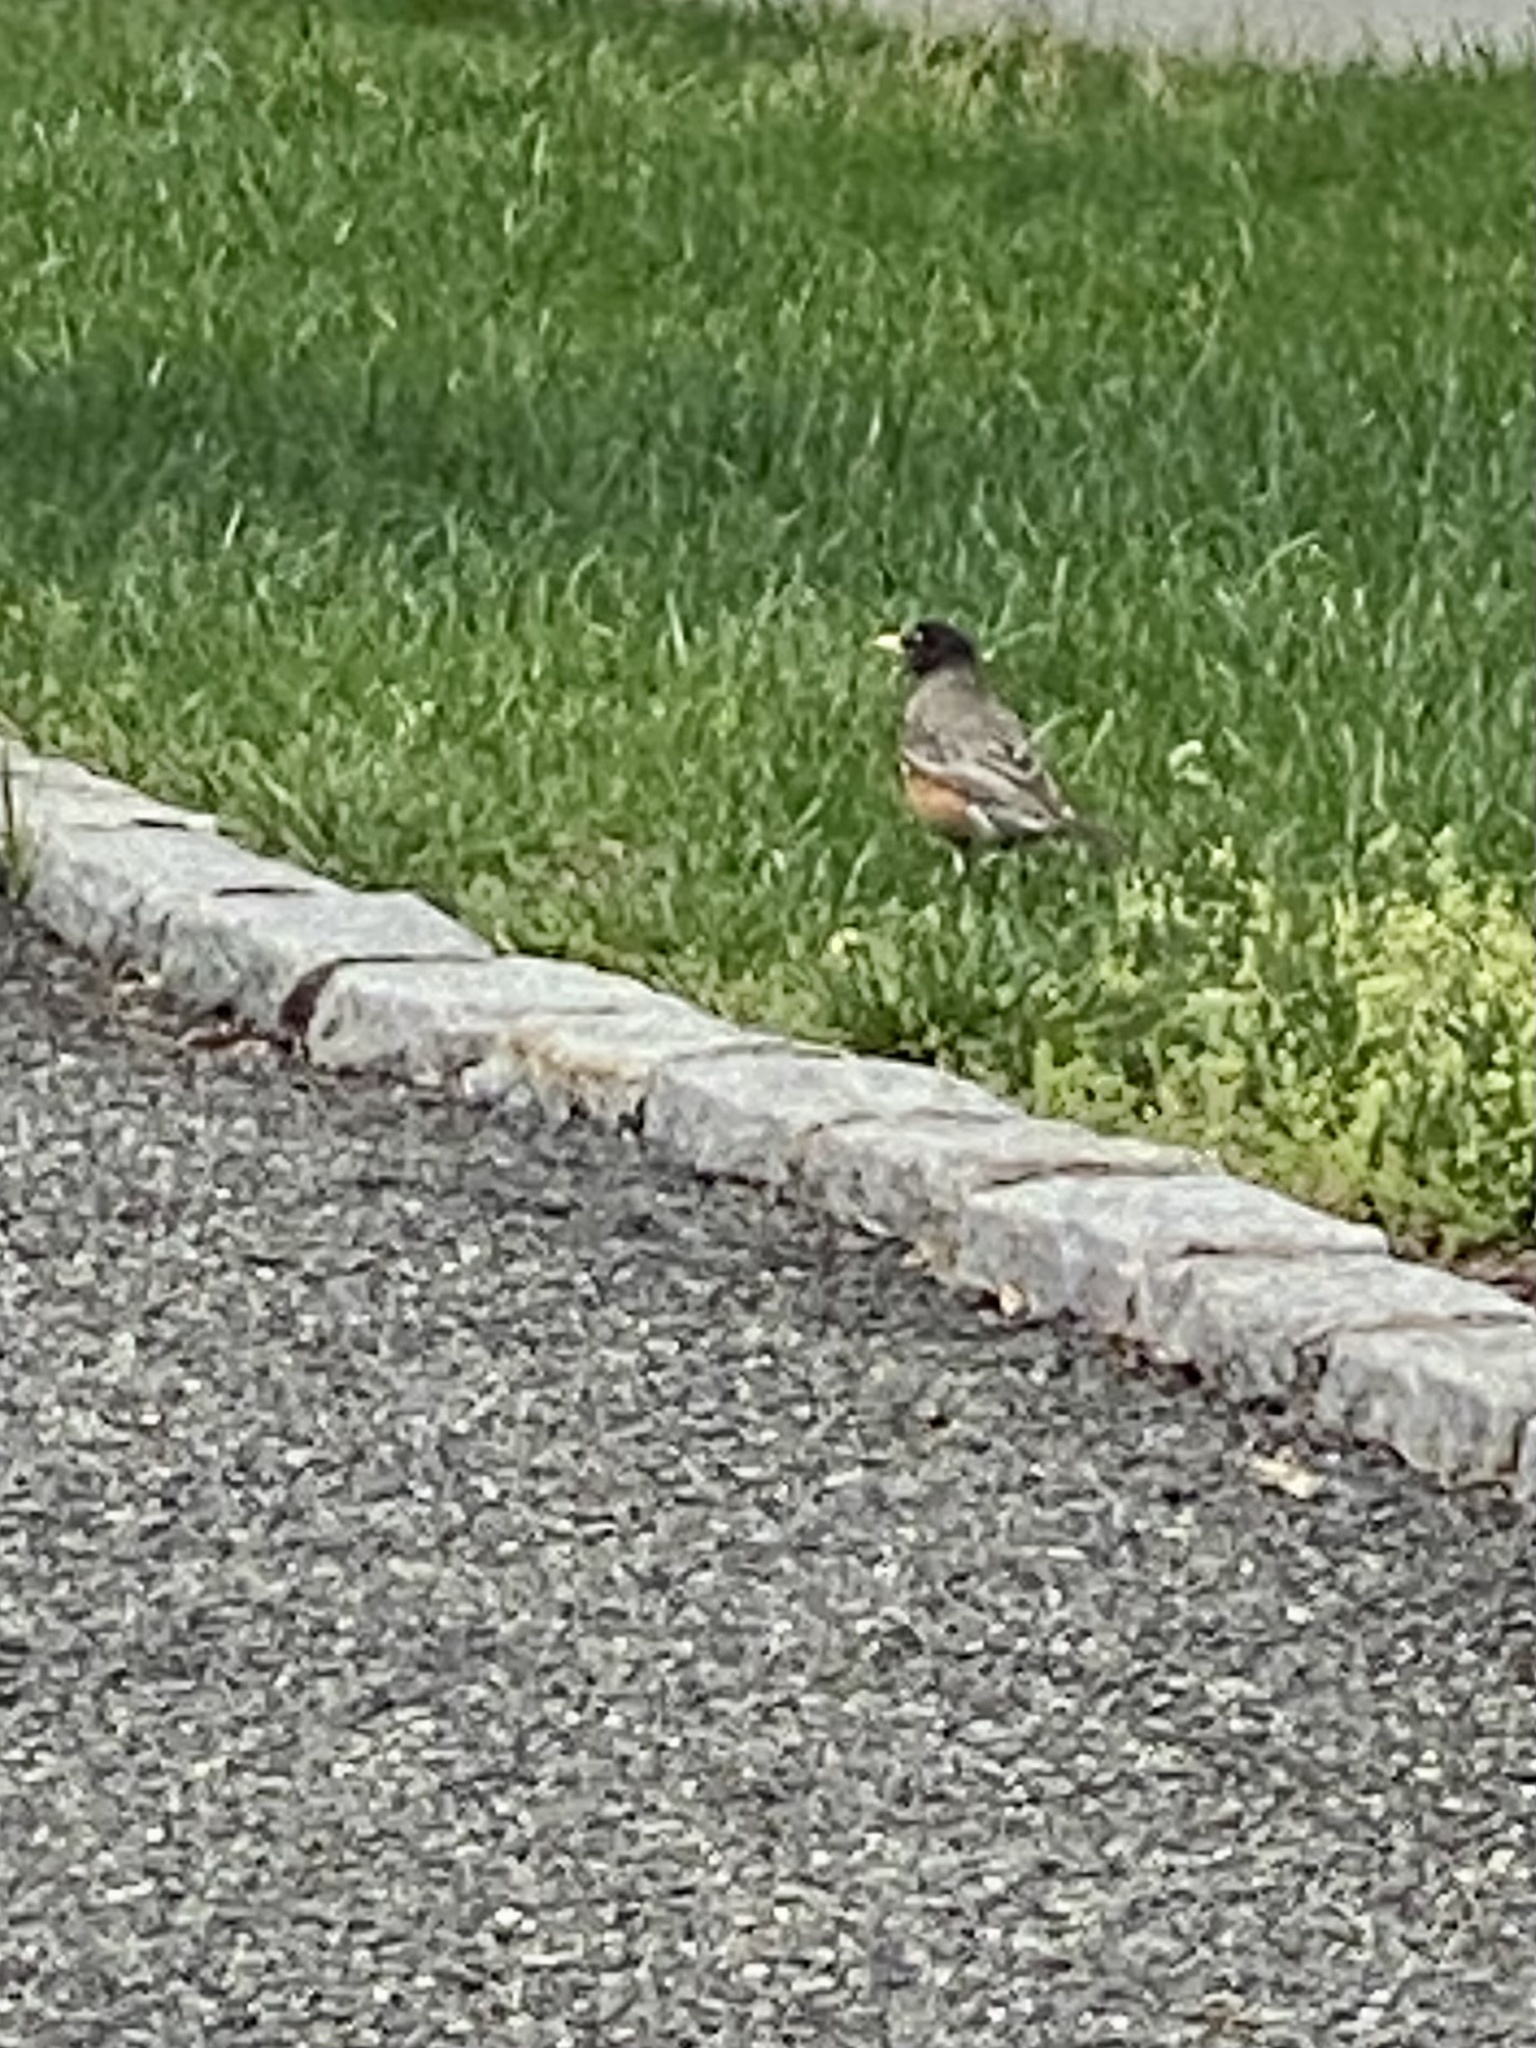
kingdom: Animalia
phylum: Chordata
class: Aves
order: Passeriformes
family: Turdidae
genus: Turdus
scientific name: Turdus migratorius
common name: American robin
